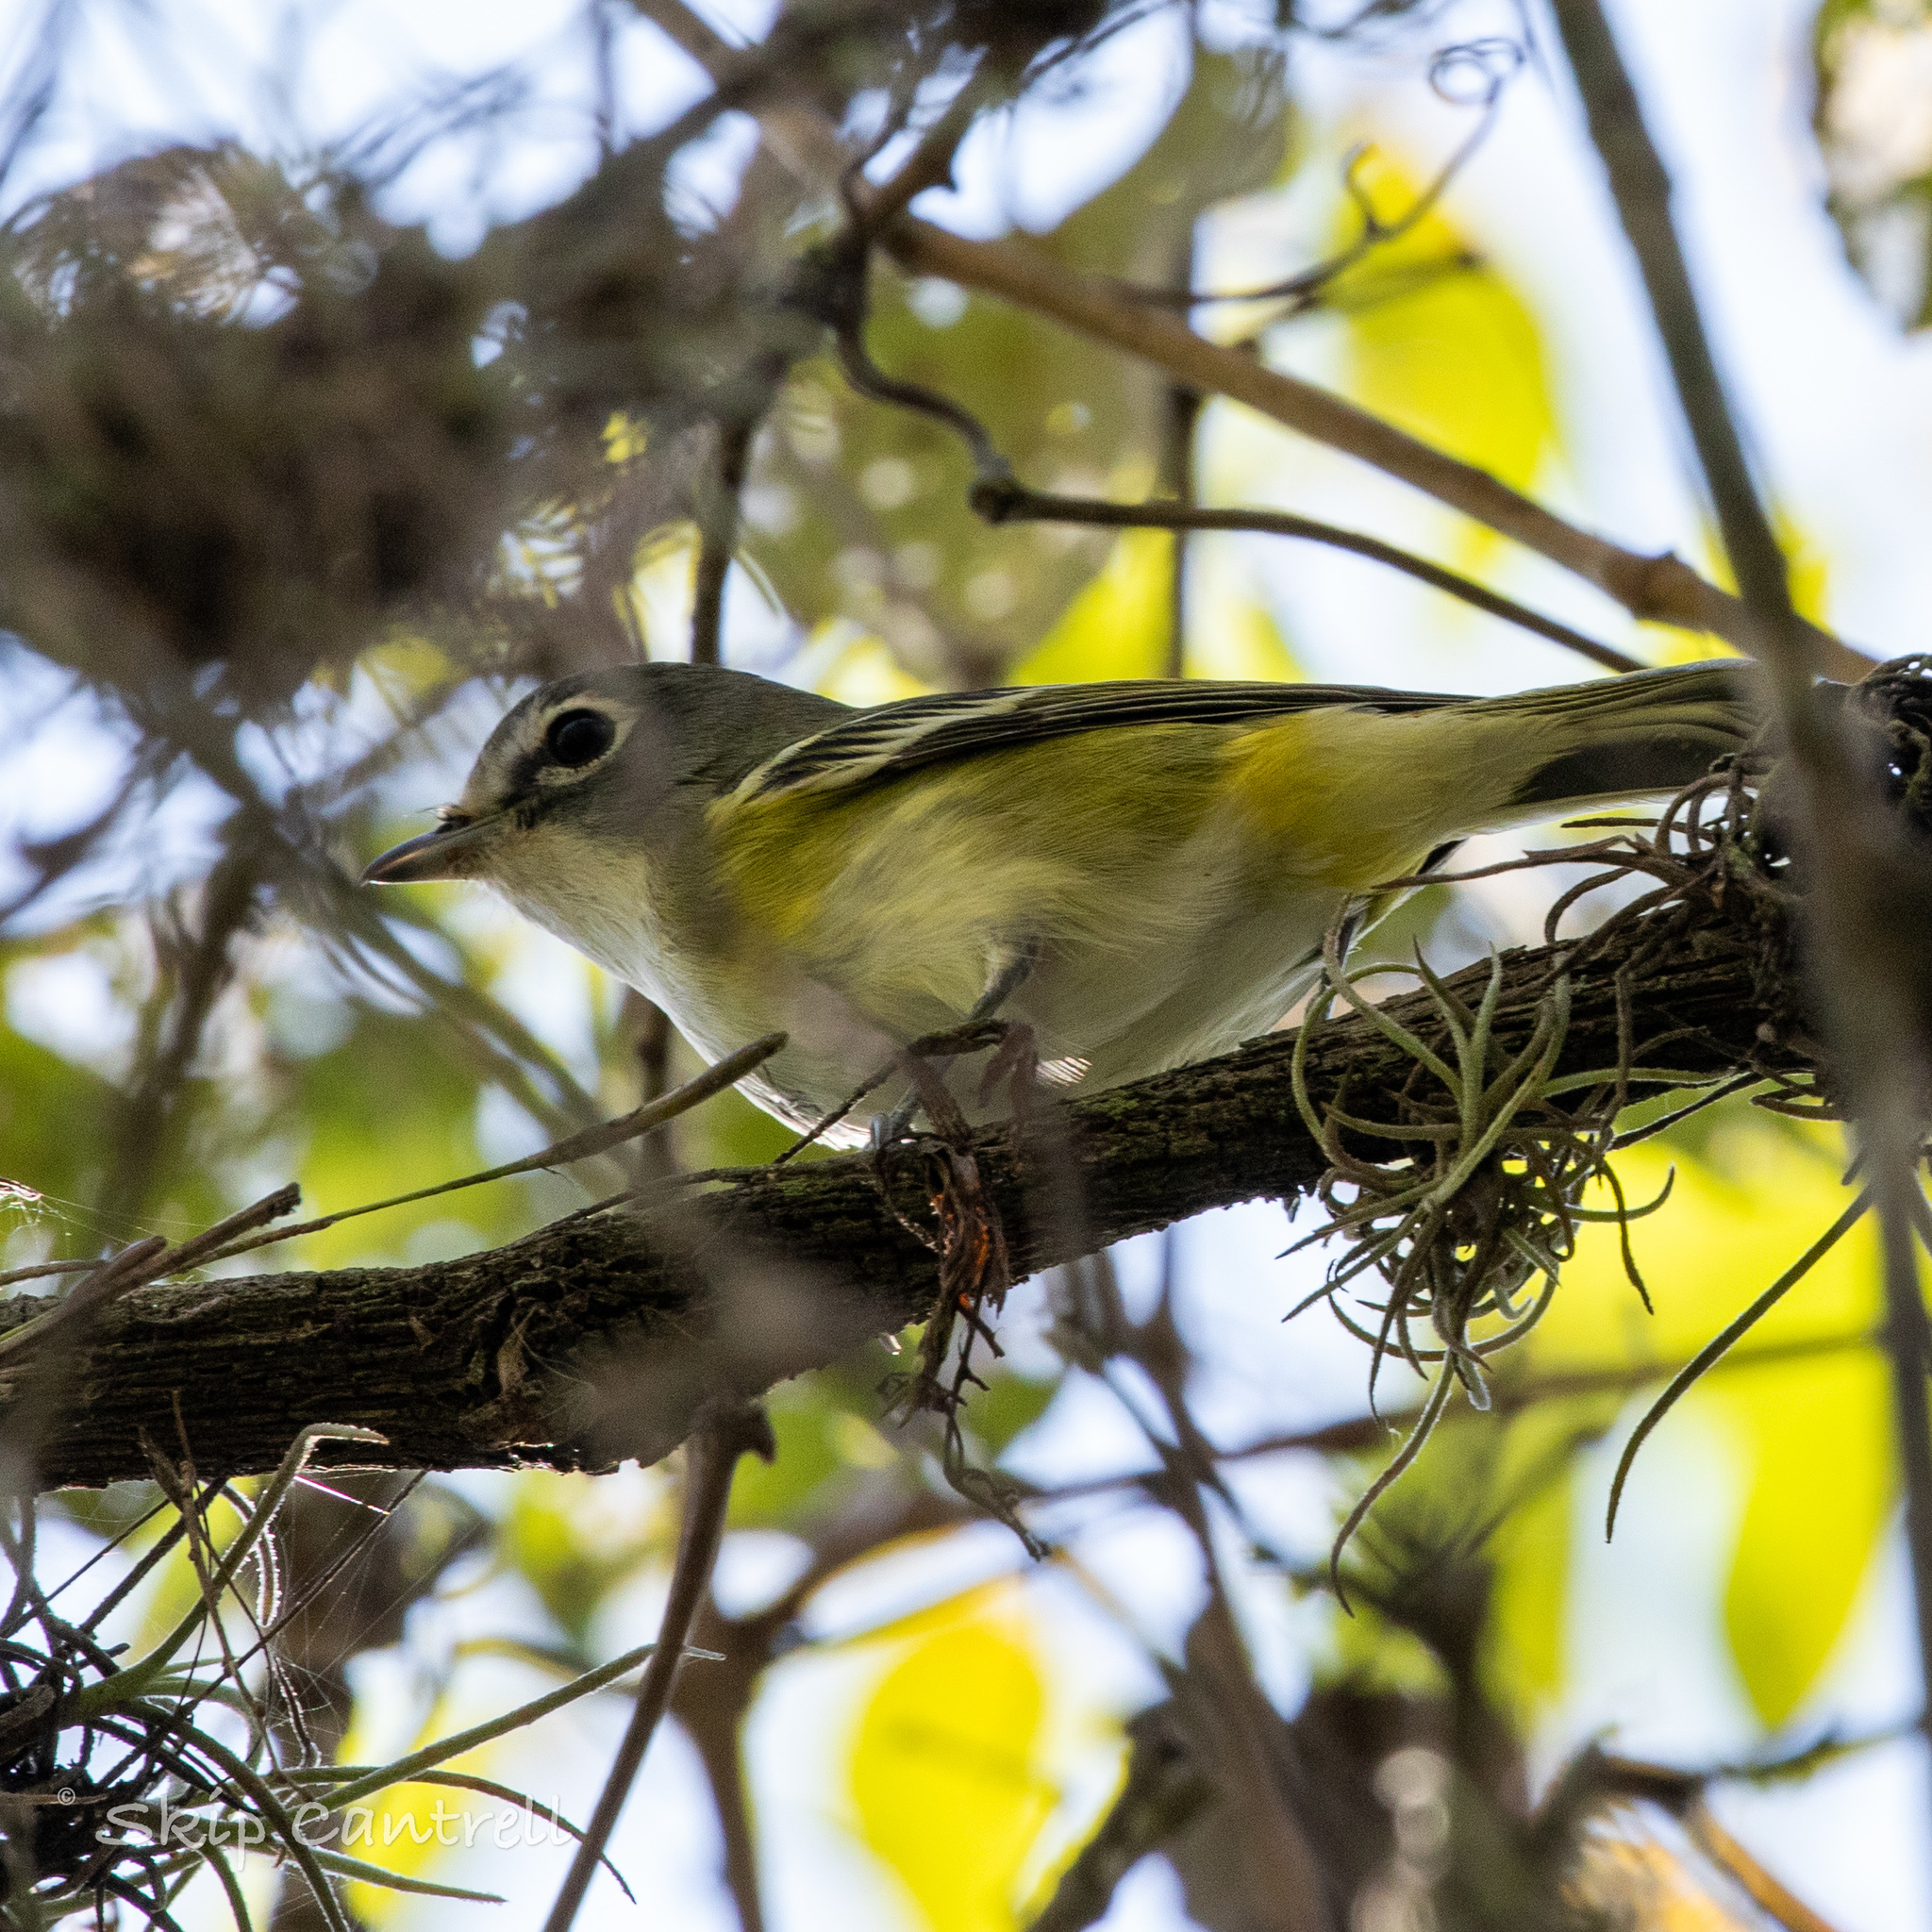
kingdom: Animalia
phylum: Chordata
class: Aves
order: Passeriformes
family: Vireonidae
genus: Vireo
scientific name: Vireo solitarius
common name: Blue-headed vireo
